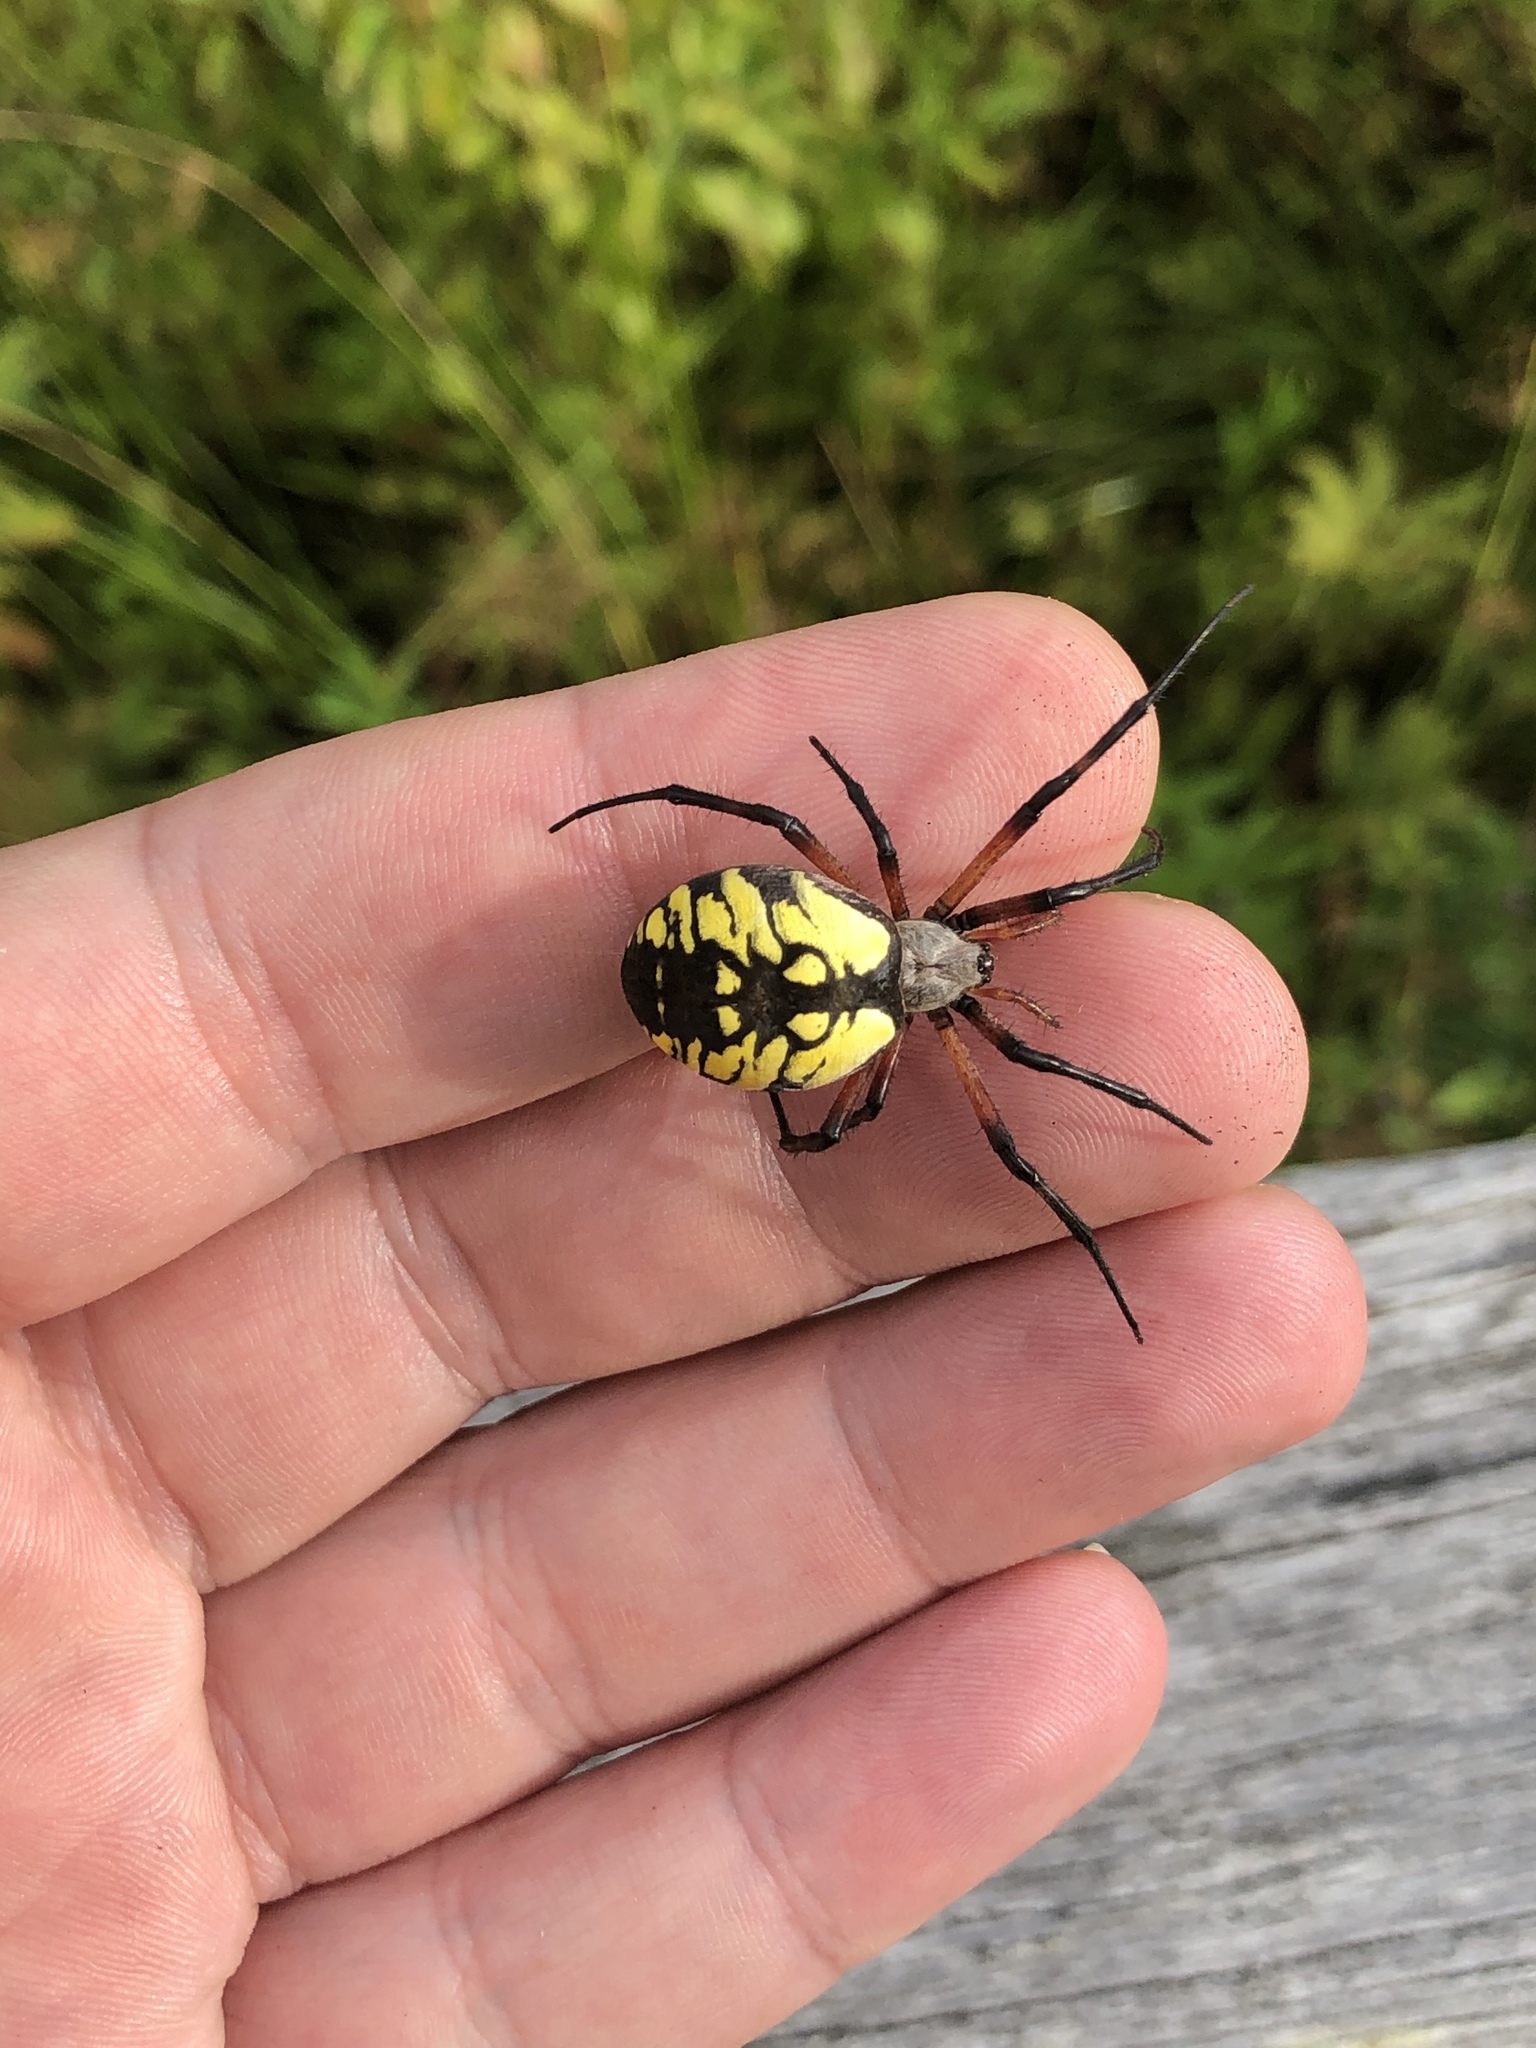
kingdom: Animalia
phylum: Arthropoda
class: Arachnida
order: Araneae
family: Araneidae
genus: Argiope
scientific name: Argiope aurantia
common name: Orb weavers
